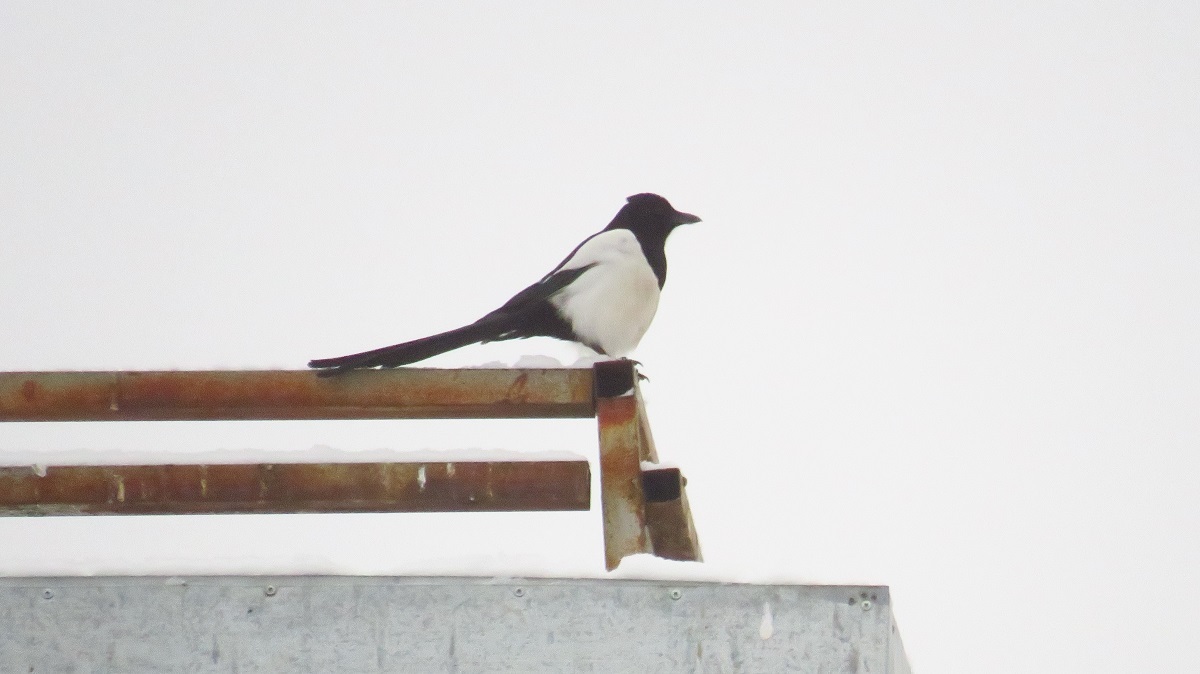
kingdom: Animalia
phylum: Chordata
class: Aves
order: Passeriformes
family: Corvidae
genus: Pica
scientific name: Pica pica
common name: Eurasian magpie
